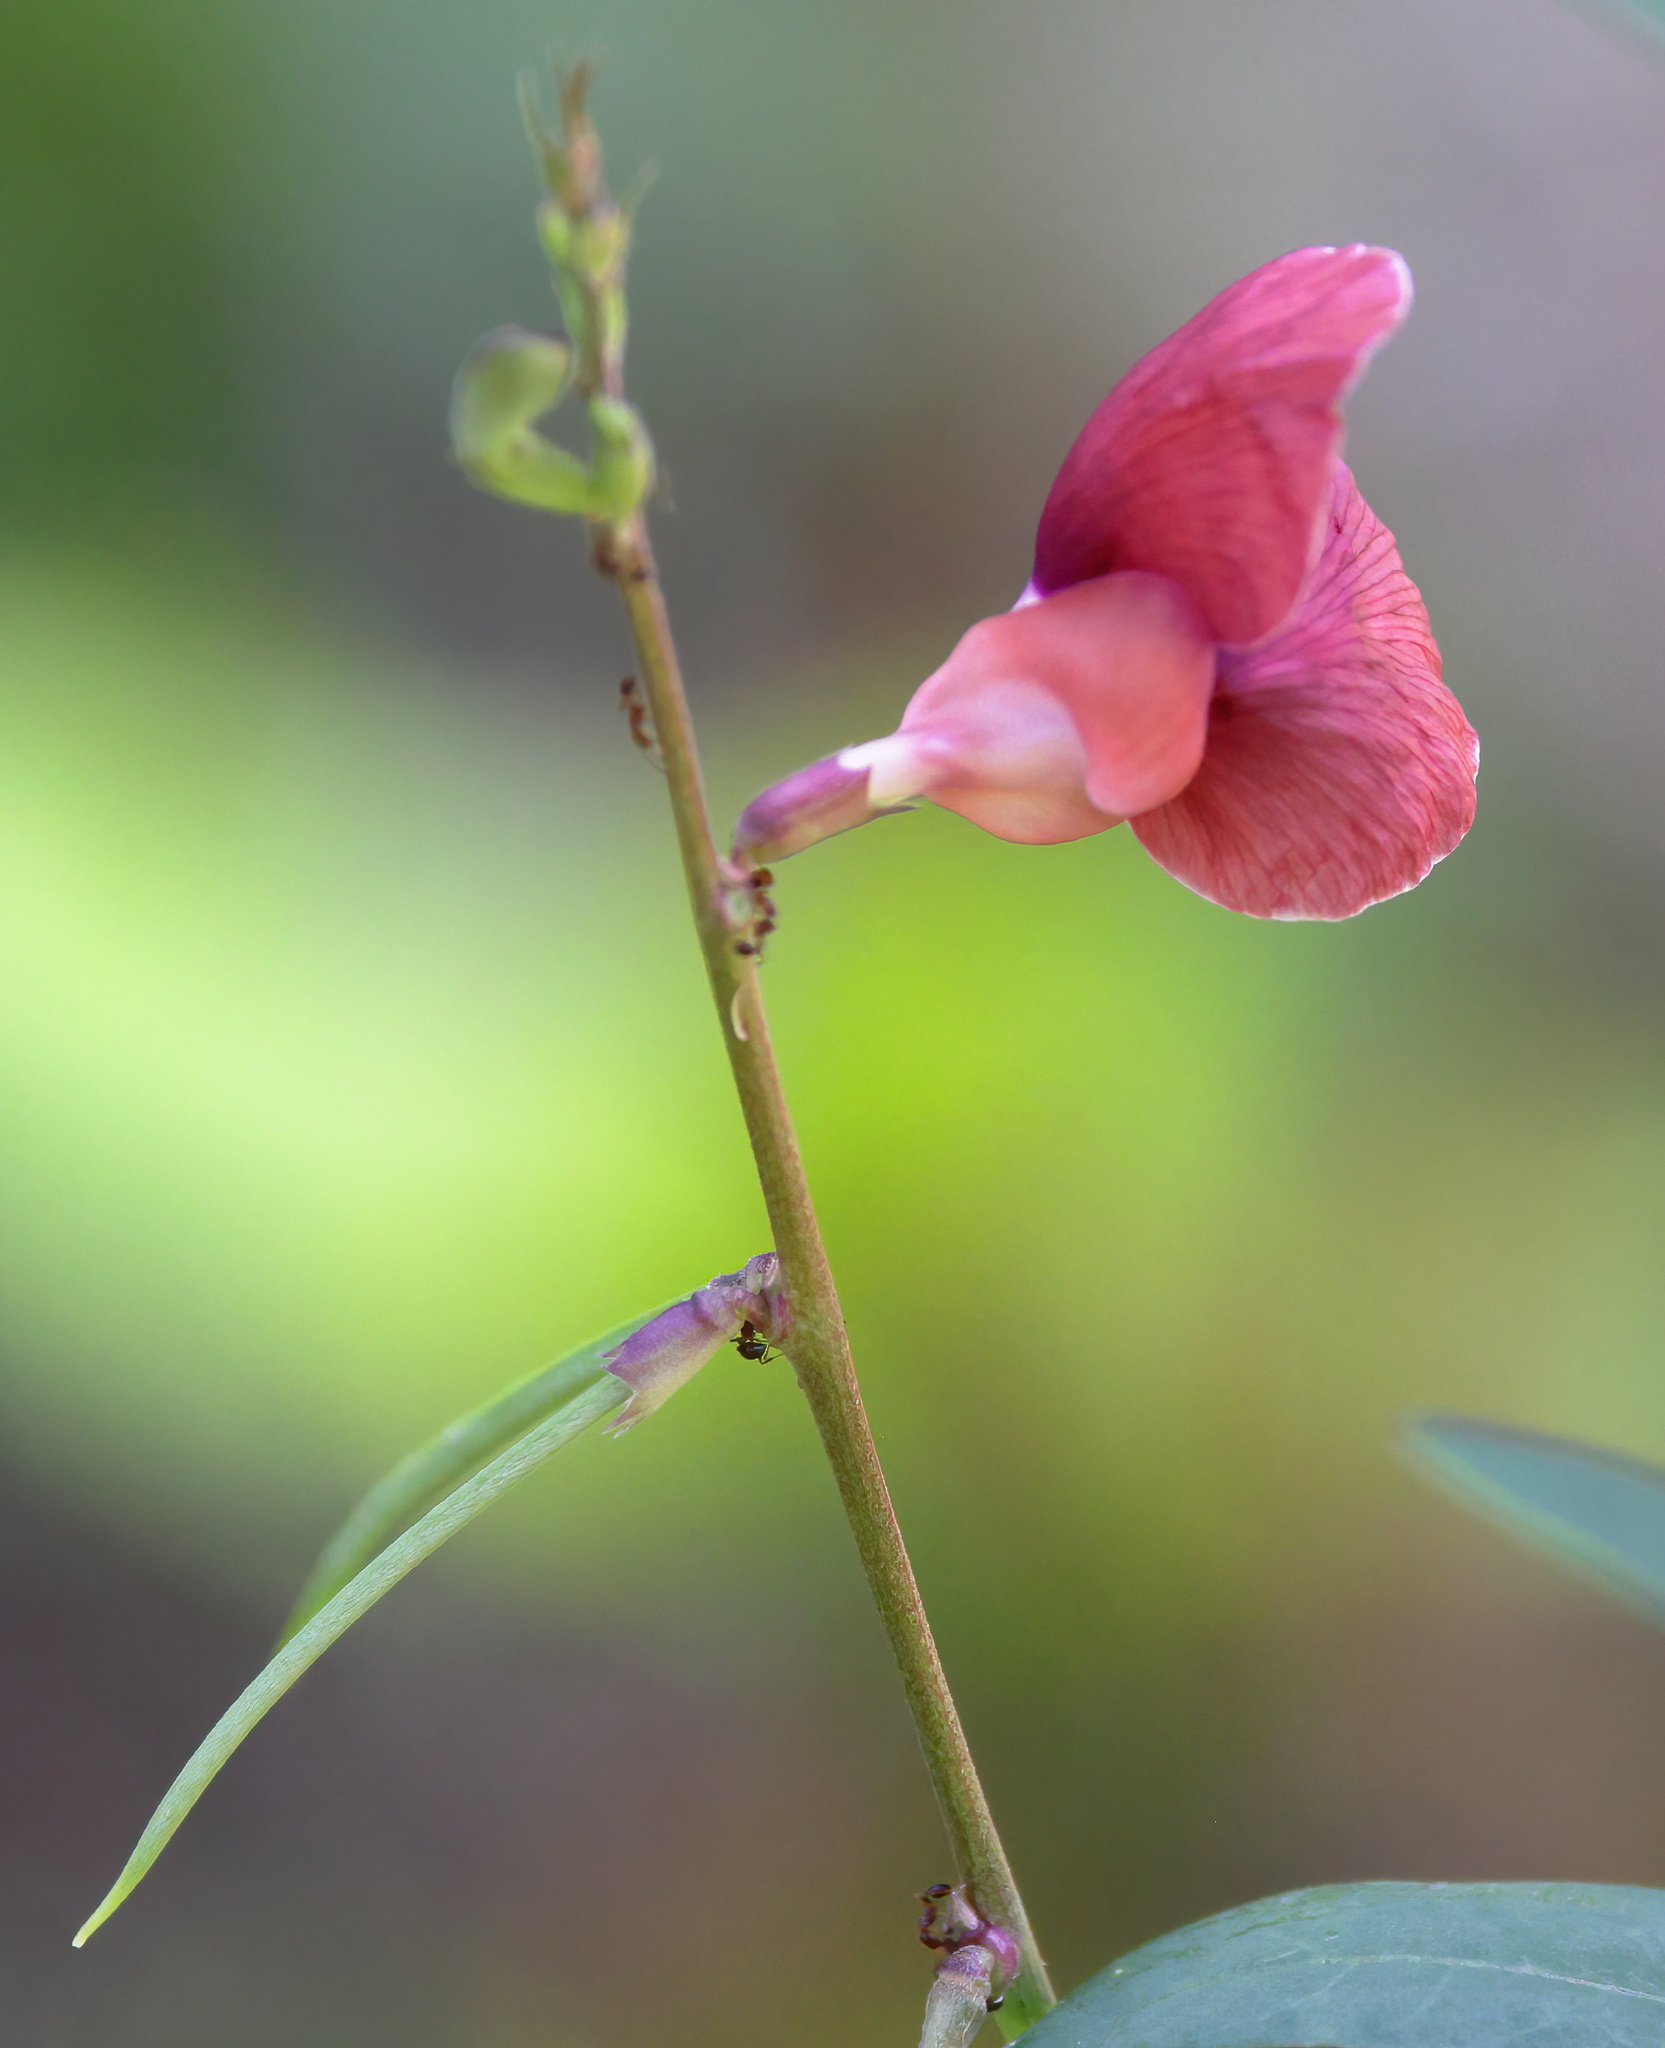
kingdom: Plantae
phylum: Tracheophyta
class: Magnoliopsida
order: Fabales
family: Fabaceae
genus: Macroptilium
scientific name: Macroptilium lathyroides
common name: Wild bushbean
